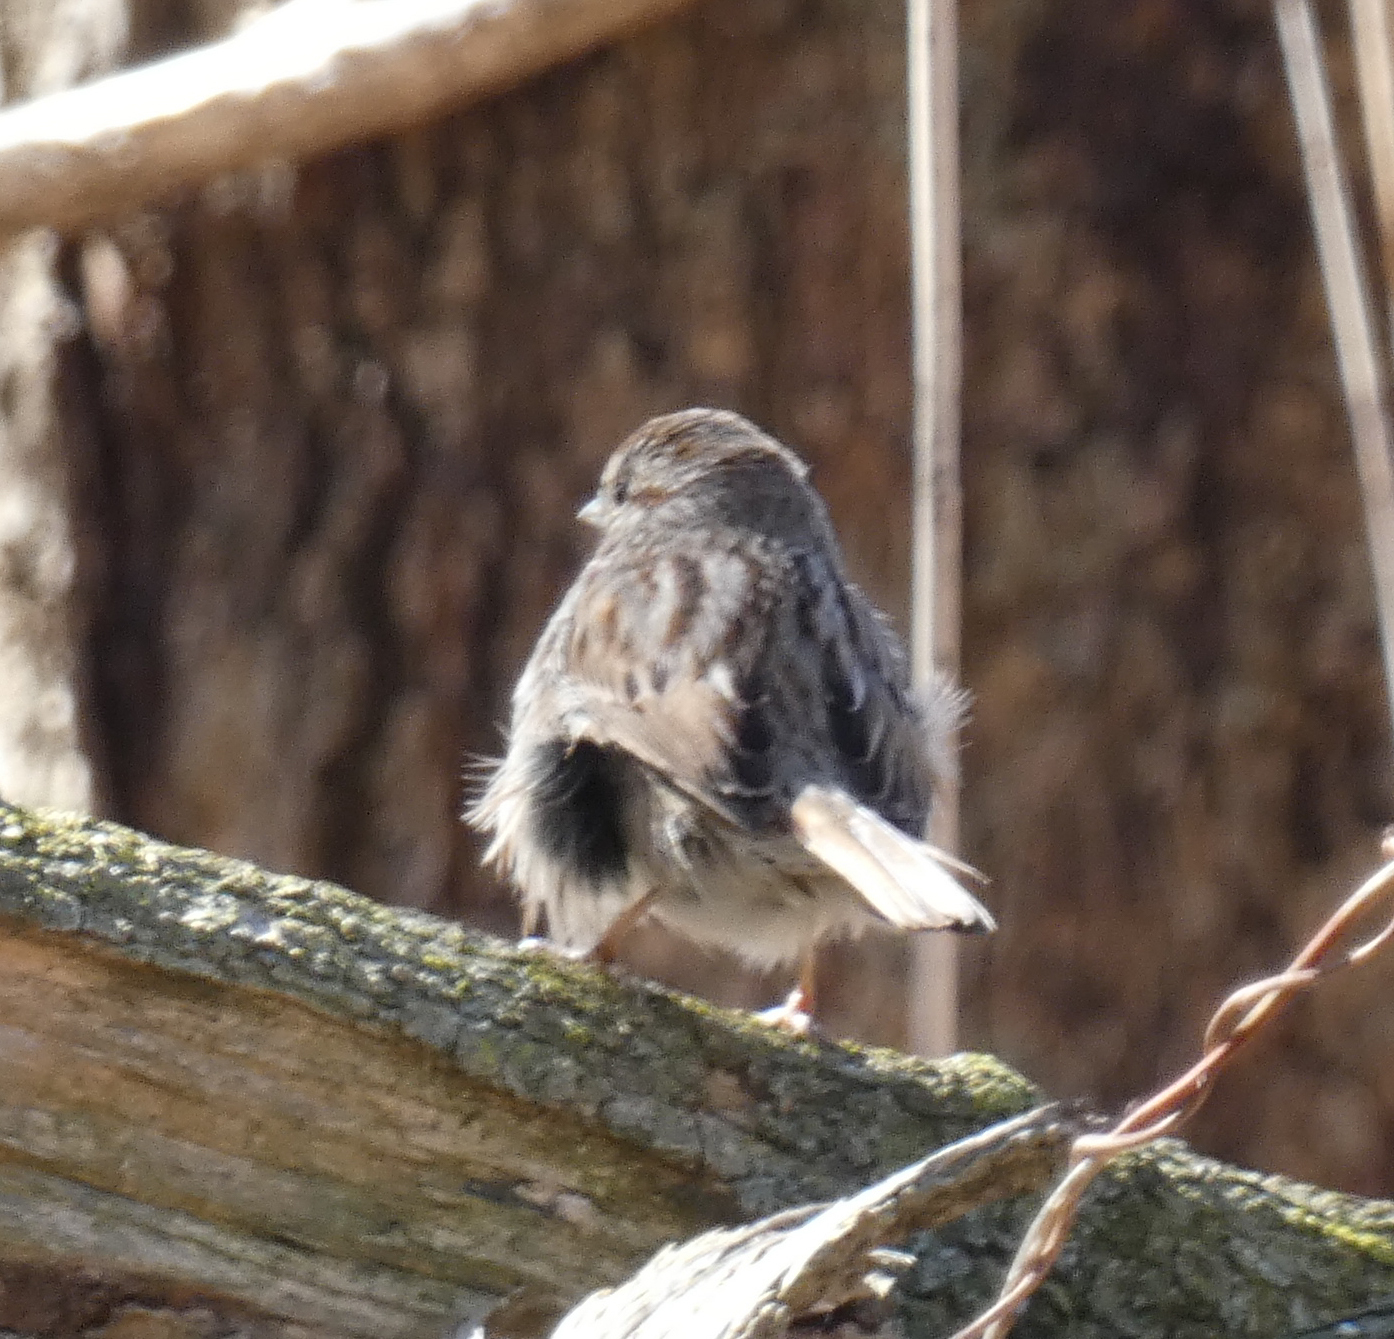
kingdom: Animalia
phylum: Chordata
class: Aves
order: Passeriformes
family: Passerellidae
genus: Melospiza
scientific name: Melospiza melodia
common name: Song sparrow
